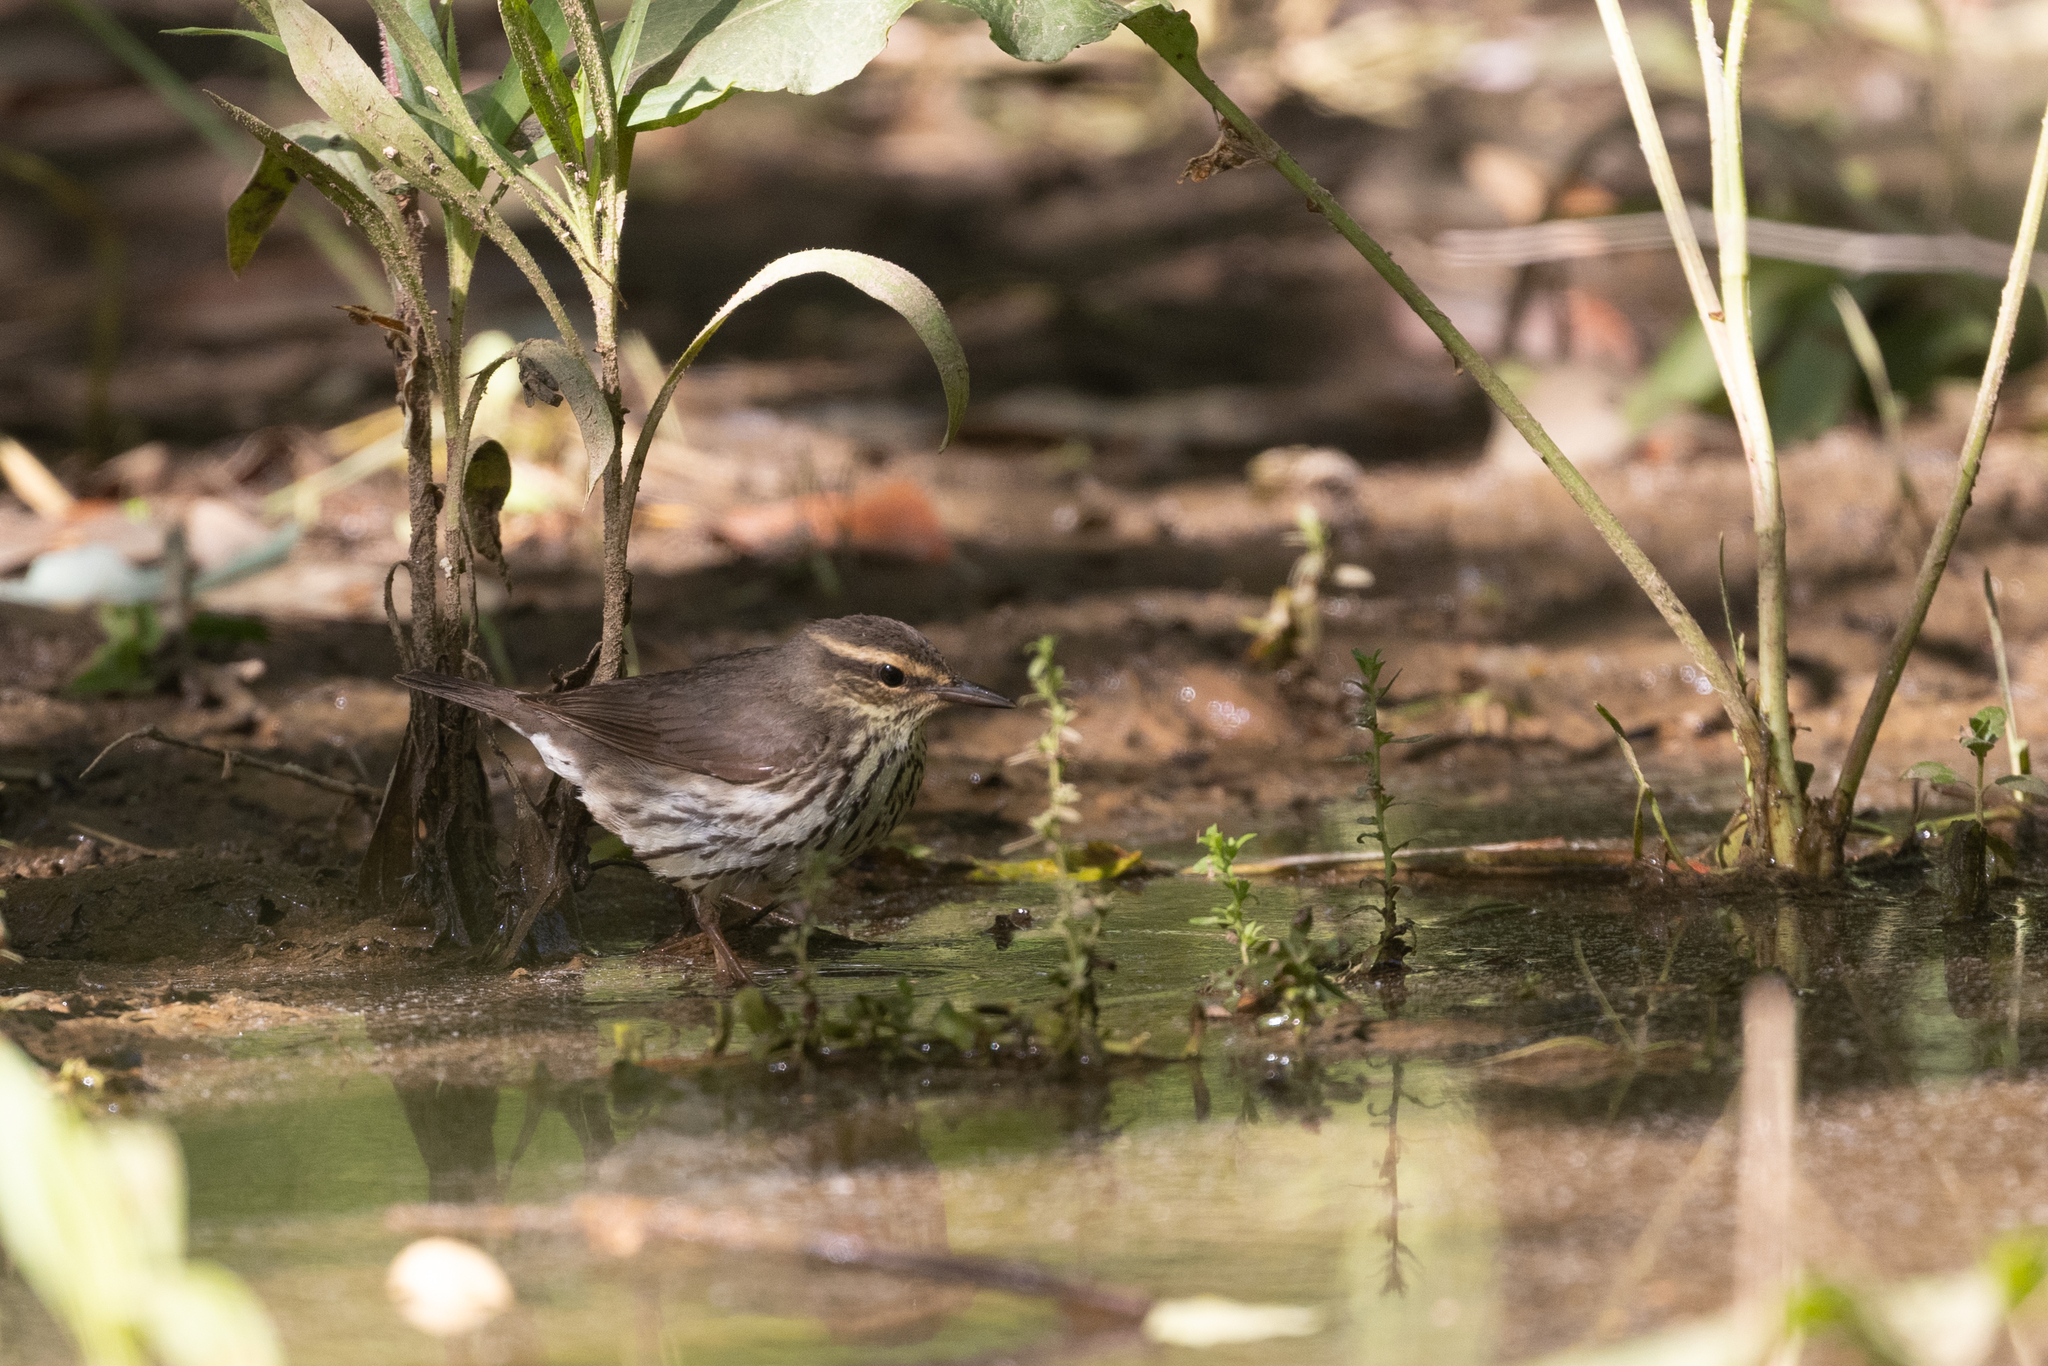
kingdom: Animalia
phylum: Chordata
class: Aves
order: Passeriformes
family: Parulidae
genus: Parkesia
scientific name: Parkesia noveboracensis
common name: Northern waterthrush
